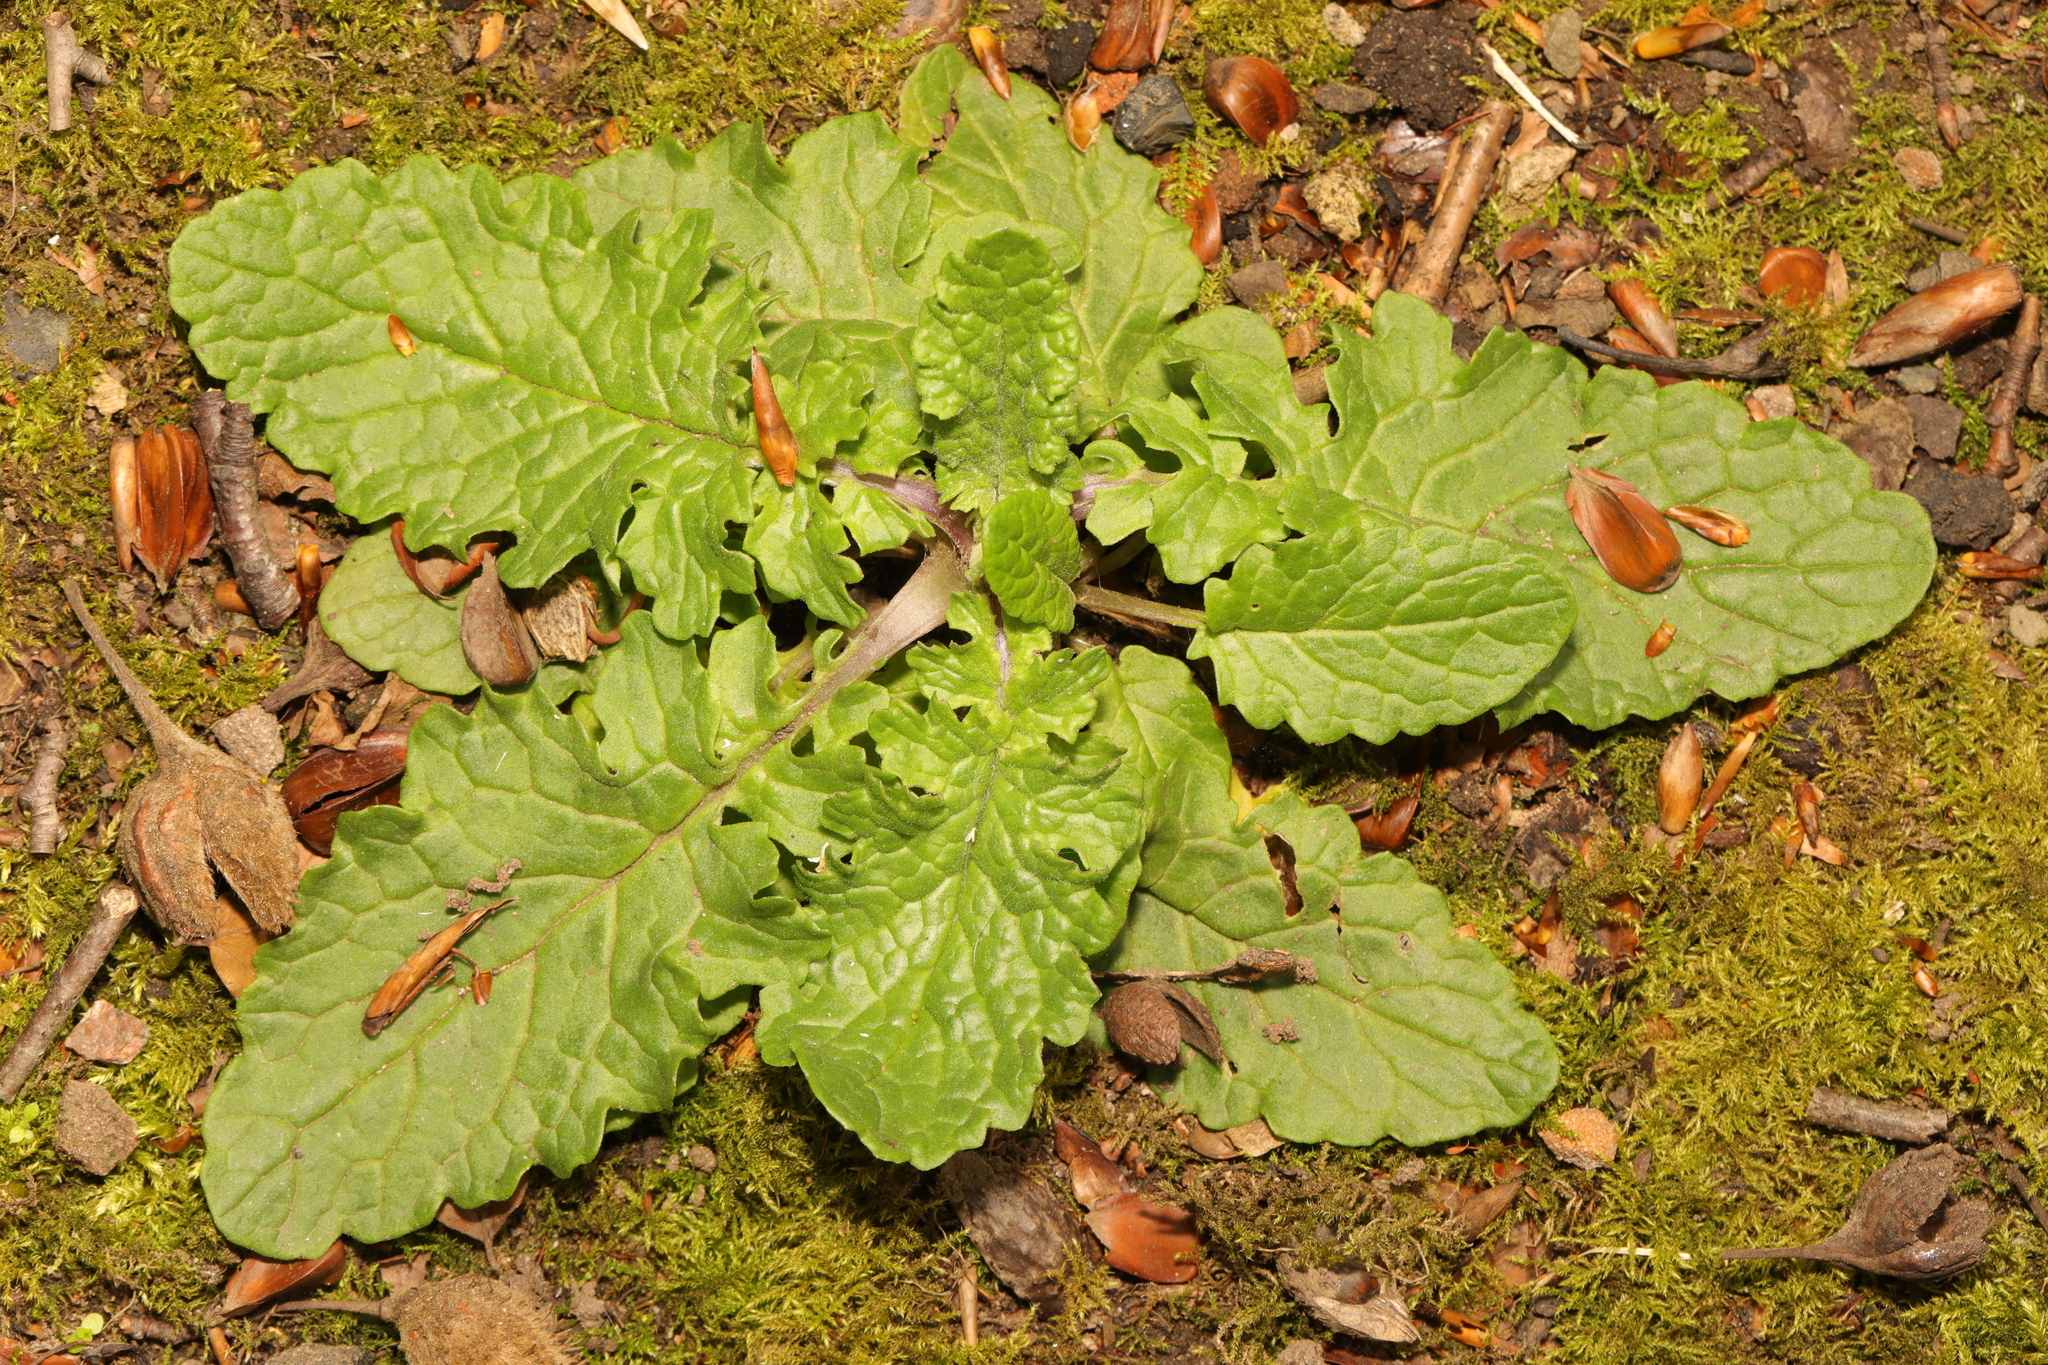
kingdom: Plantae
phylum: Tracheophyta
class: Magnoliopsida
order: Asterales
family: Asteraceae
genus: Jacobaea
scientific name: Jacobaea vulgaris
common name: Stinking willie
